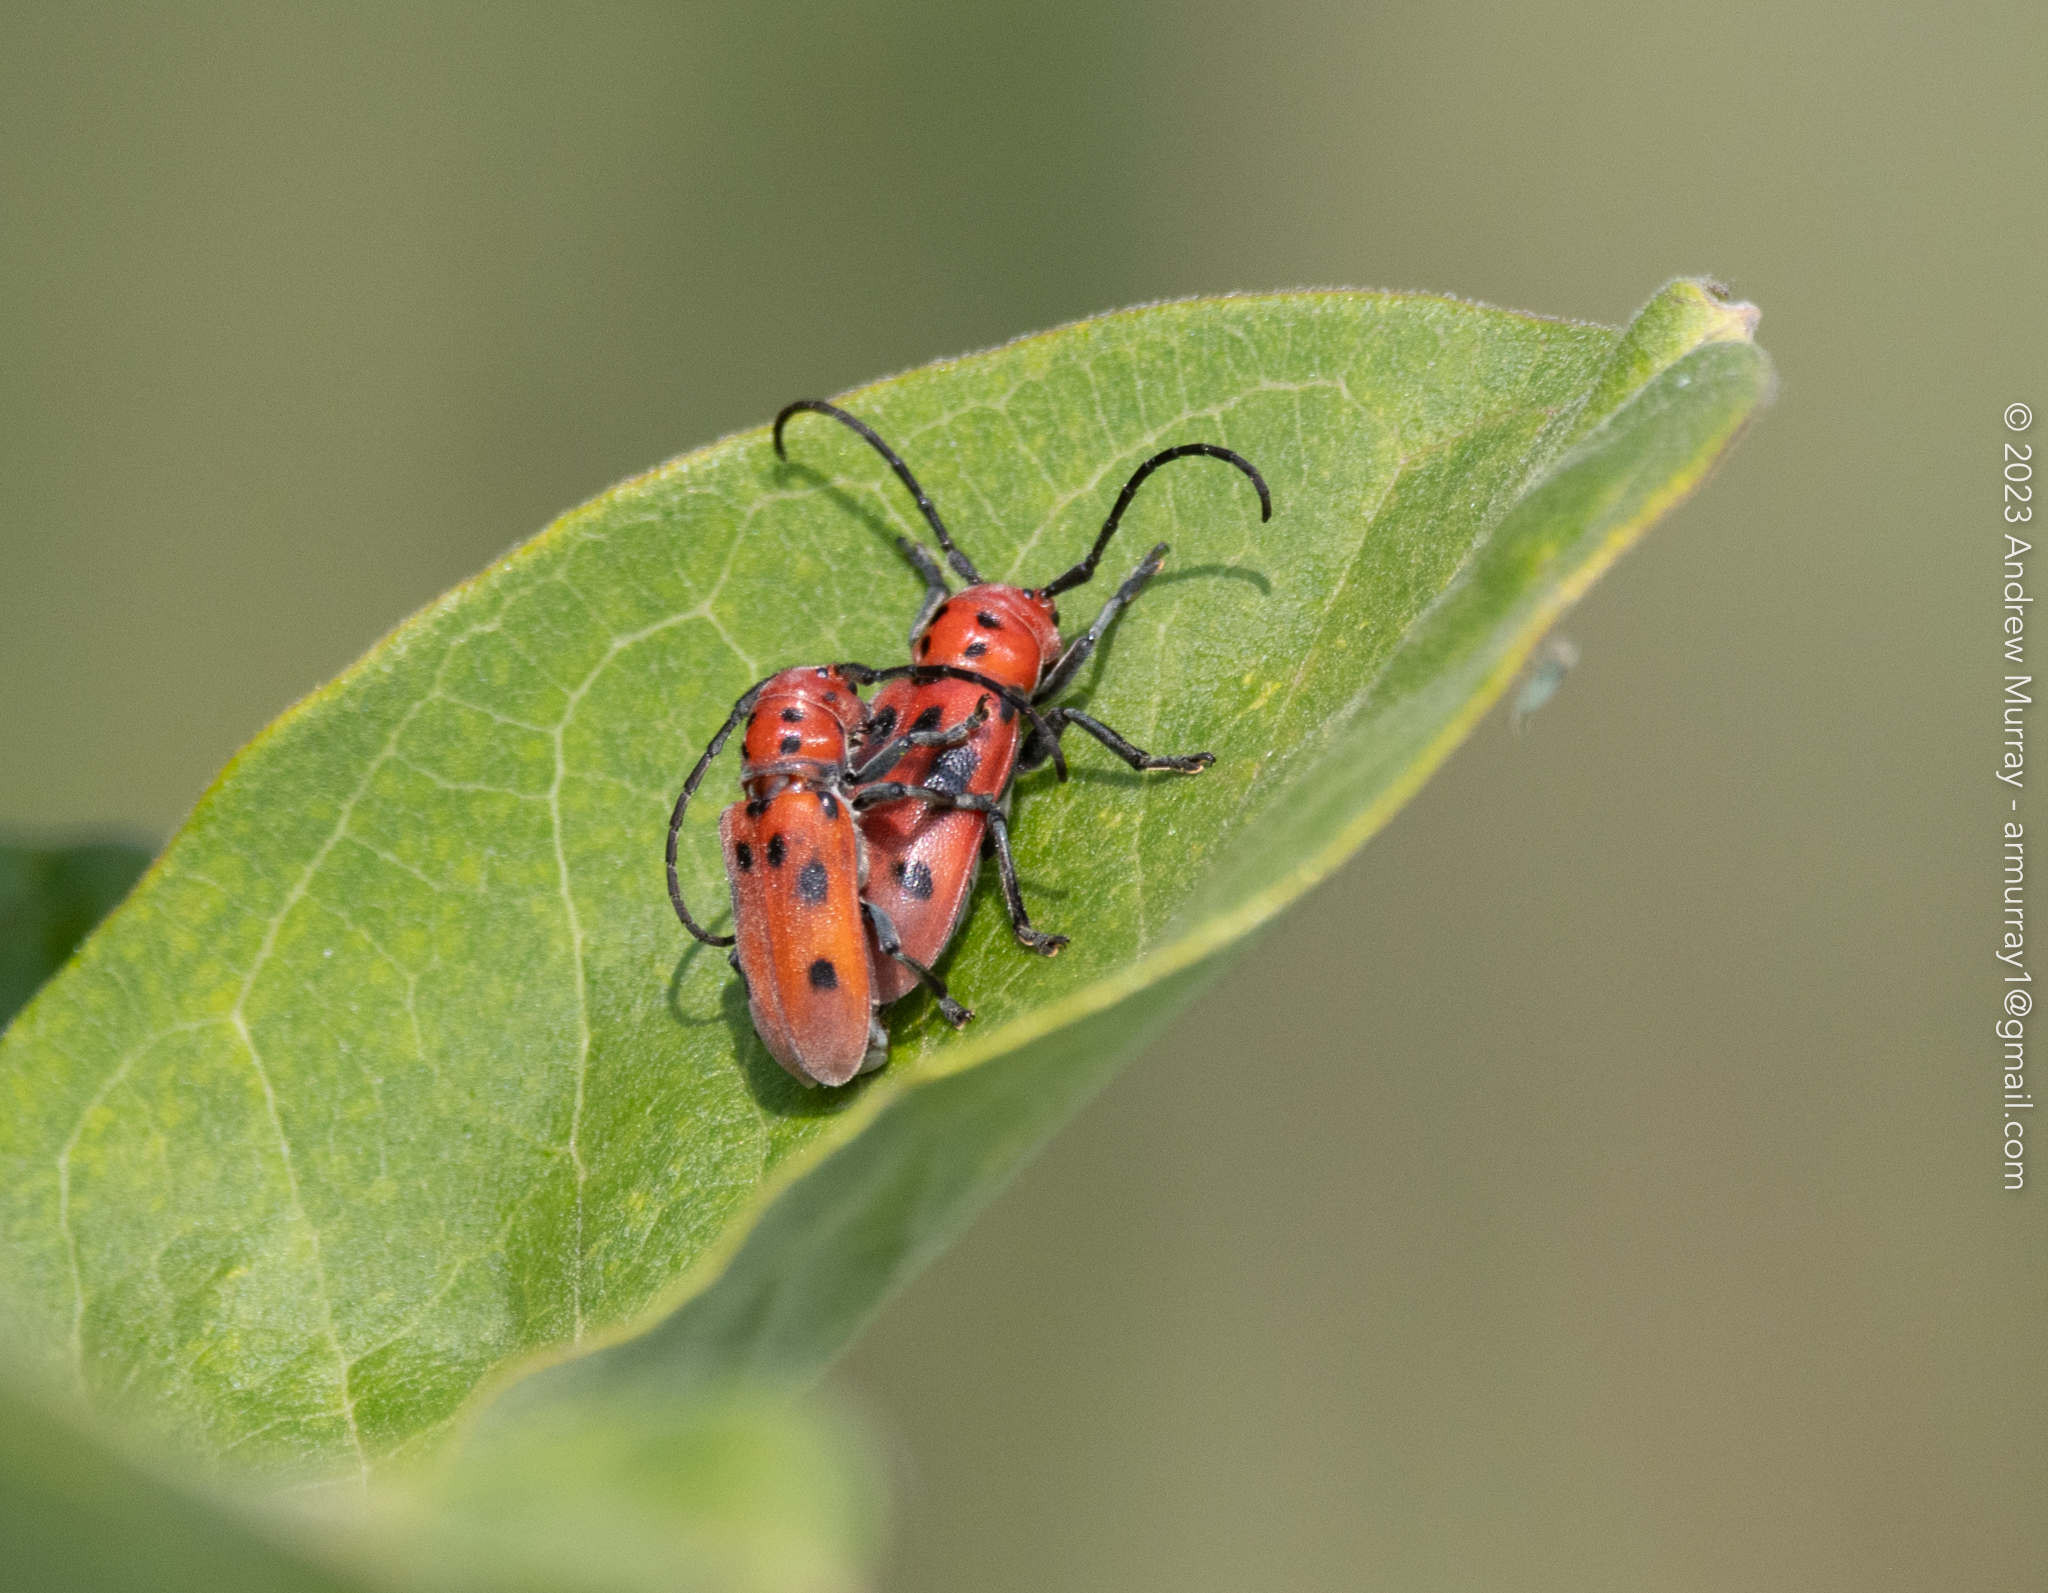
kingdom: Animalia
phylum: Arthropoda
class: Insecta
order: Coleoptera
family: Cerambycidae
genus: Tetraopes
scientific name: Tetraopes tetrophthalmus
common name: Red milkweed beetle
